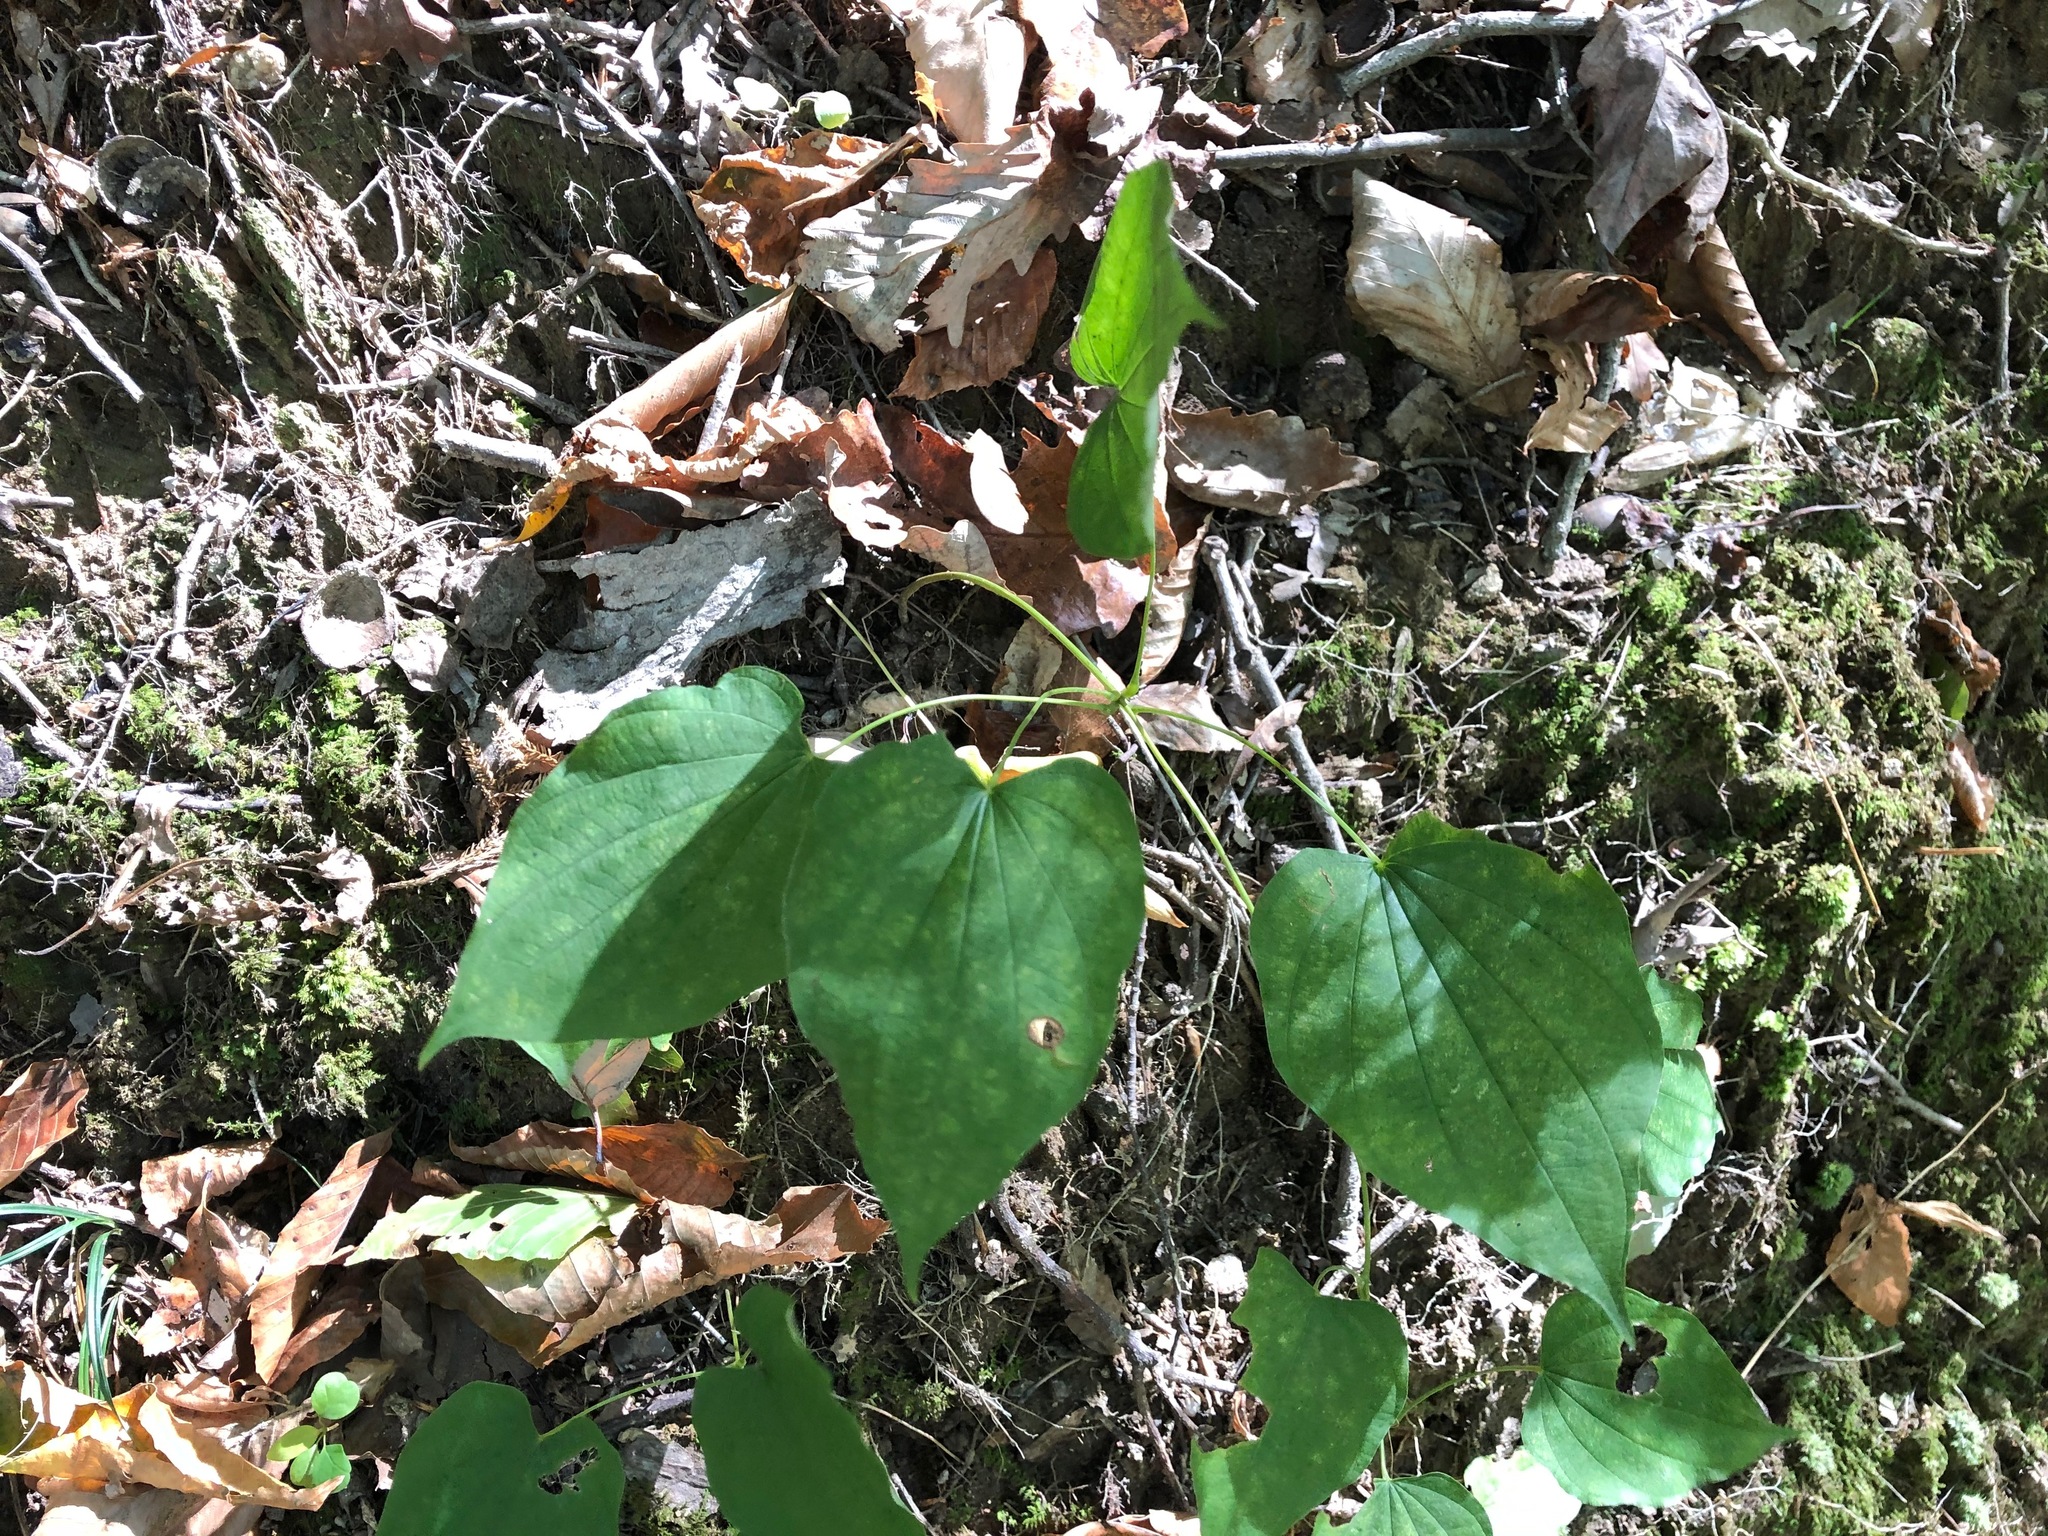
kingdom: Plantae
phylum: Tracheophyta
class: Liliopsida
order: Dioscoreales
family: Dioscoreaceae
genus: Dioscorea
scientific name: Dioscorea villosa
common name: Wild yam
